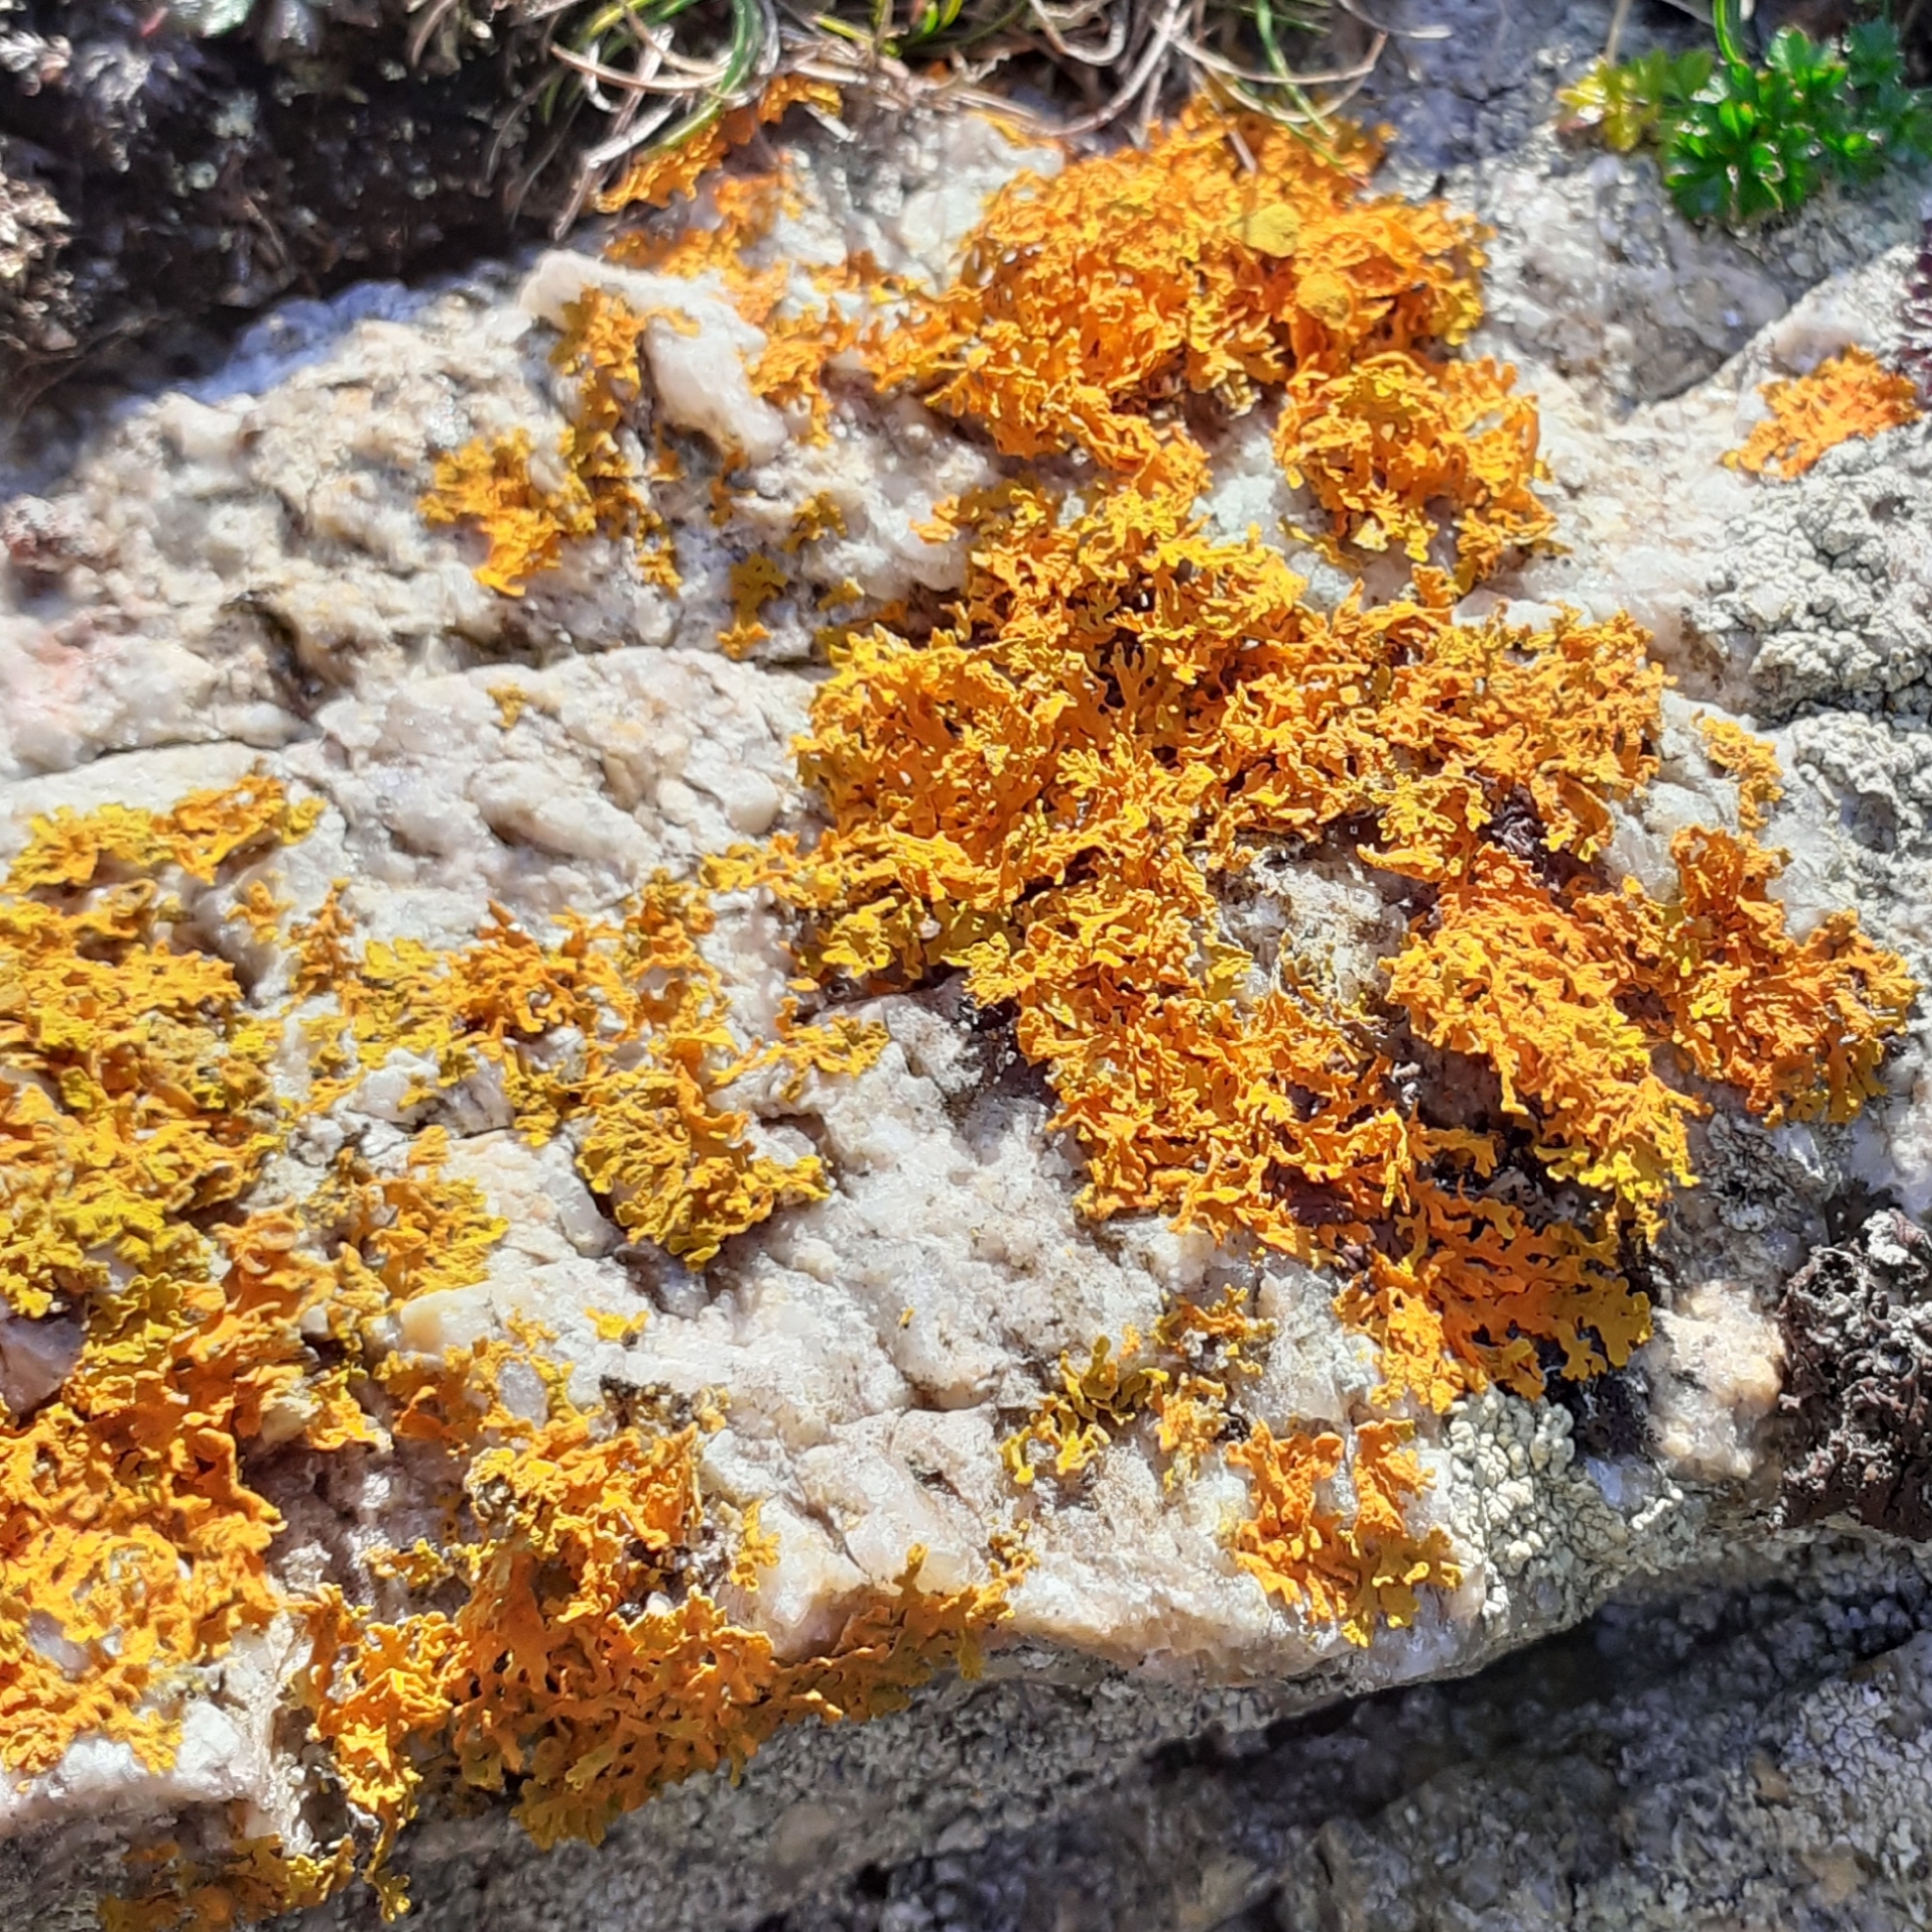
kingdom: Fungi
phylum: Ascomycota
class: Lecanoromycetes
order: Teloschistales
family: Teloschistaceae
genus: Xanthoria
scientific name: Xanthoria aureola
